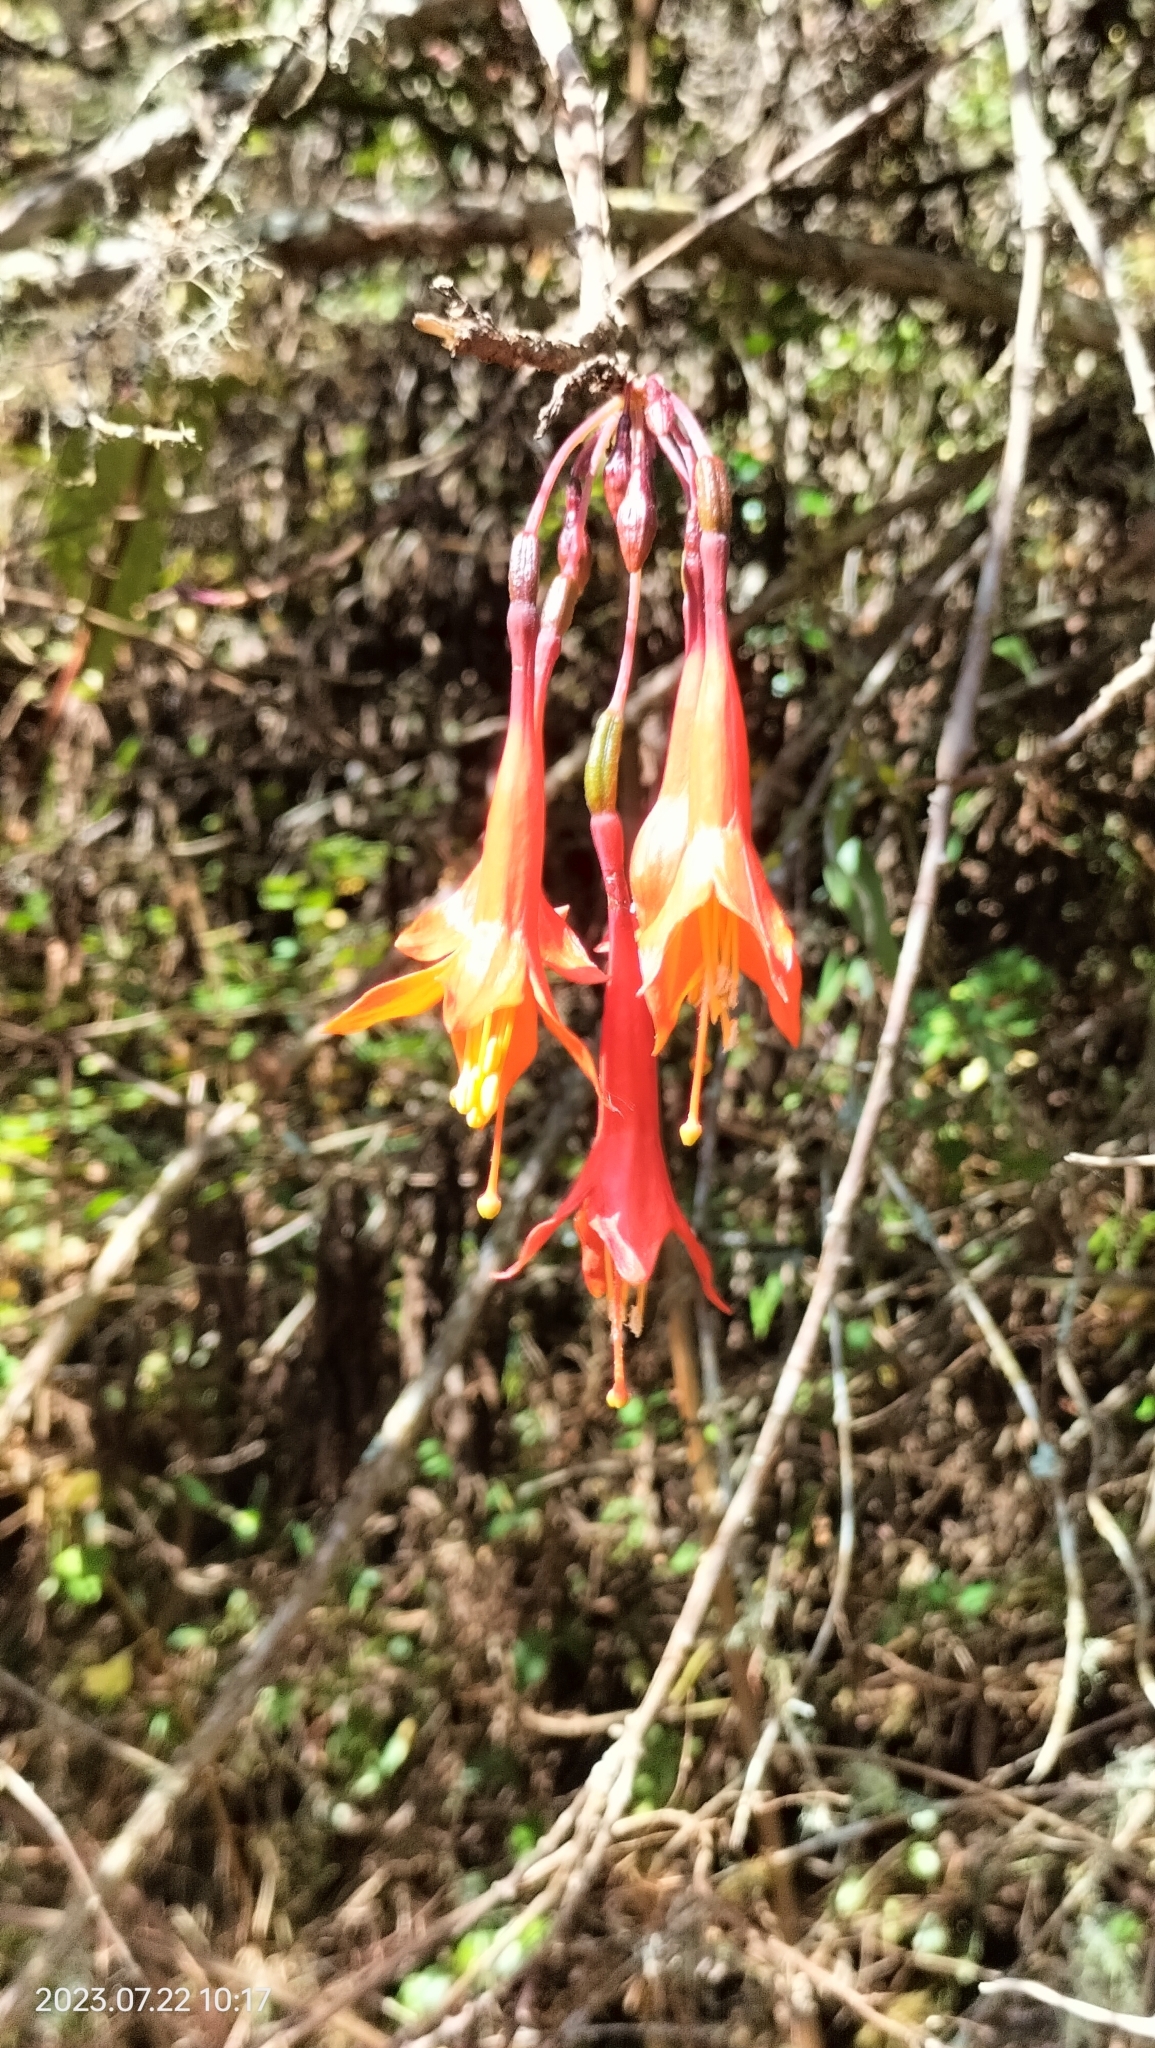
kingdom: Plantae
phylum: Tracheophyta
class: Magnoliopsida
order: Myrtales
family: Onagraceae
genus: Fuchsia
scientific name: Fuchsia tunariensis
